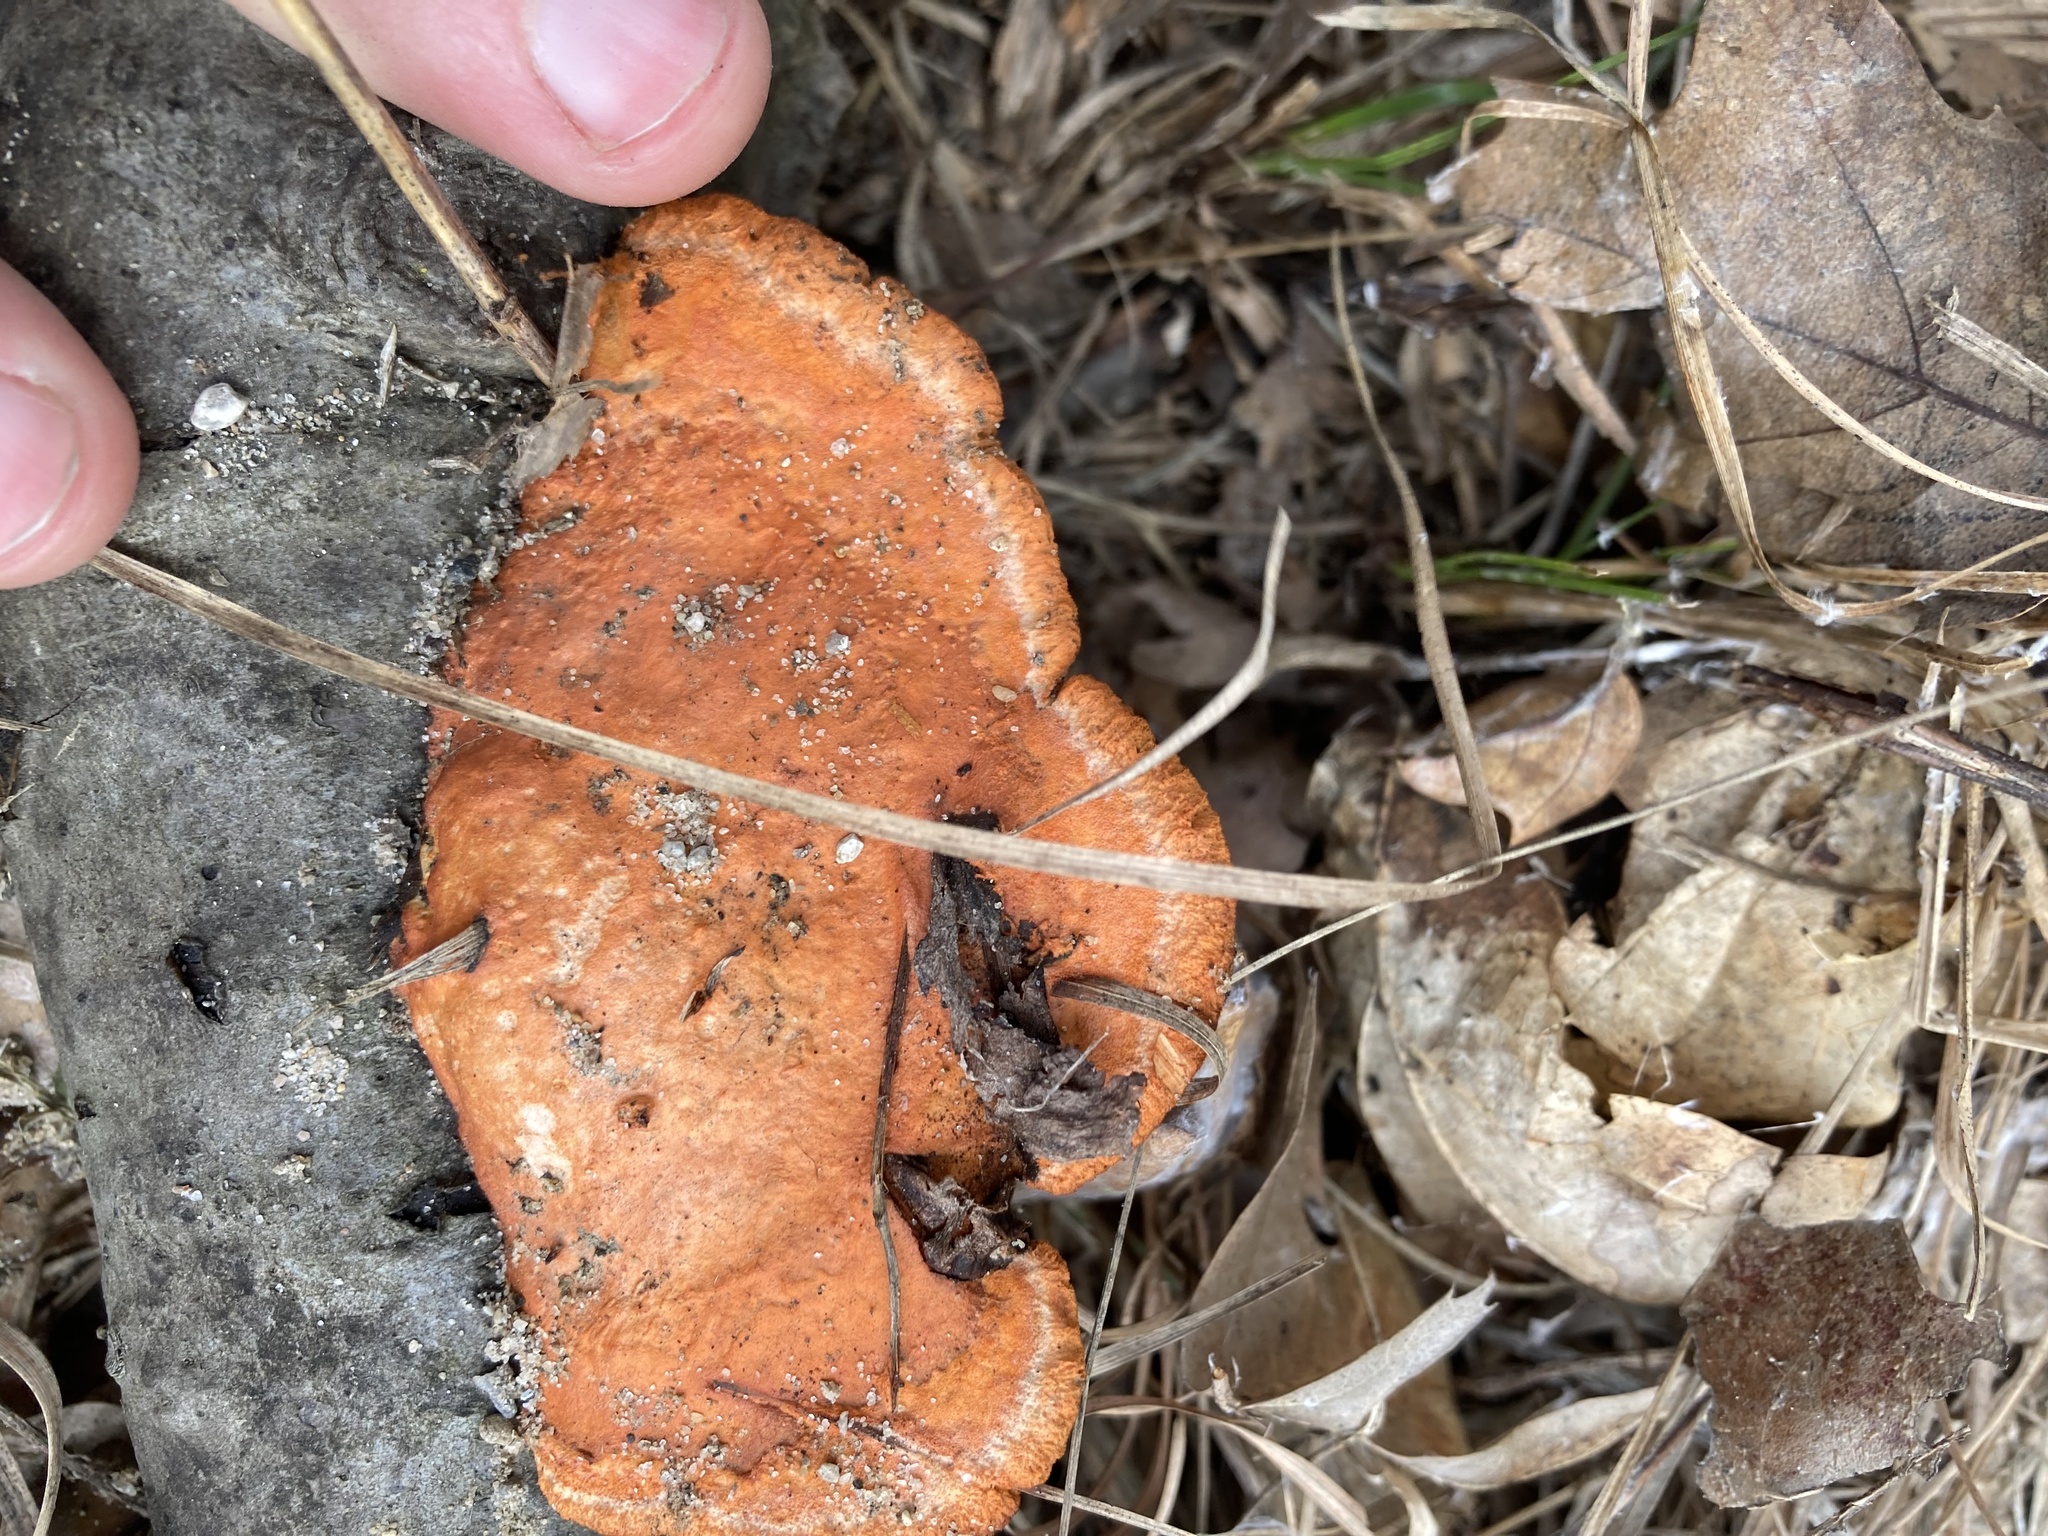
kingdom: Fungi
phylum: Basidiomycota
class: Agaricomycetes
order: Polyporales
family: Polyporaceae
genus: Trametes
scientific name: Trametes cinnabarina
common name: Northern cinnabar polypore
